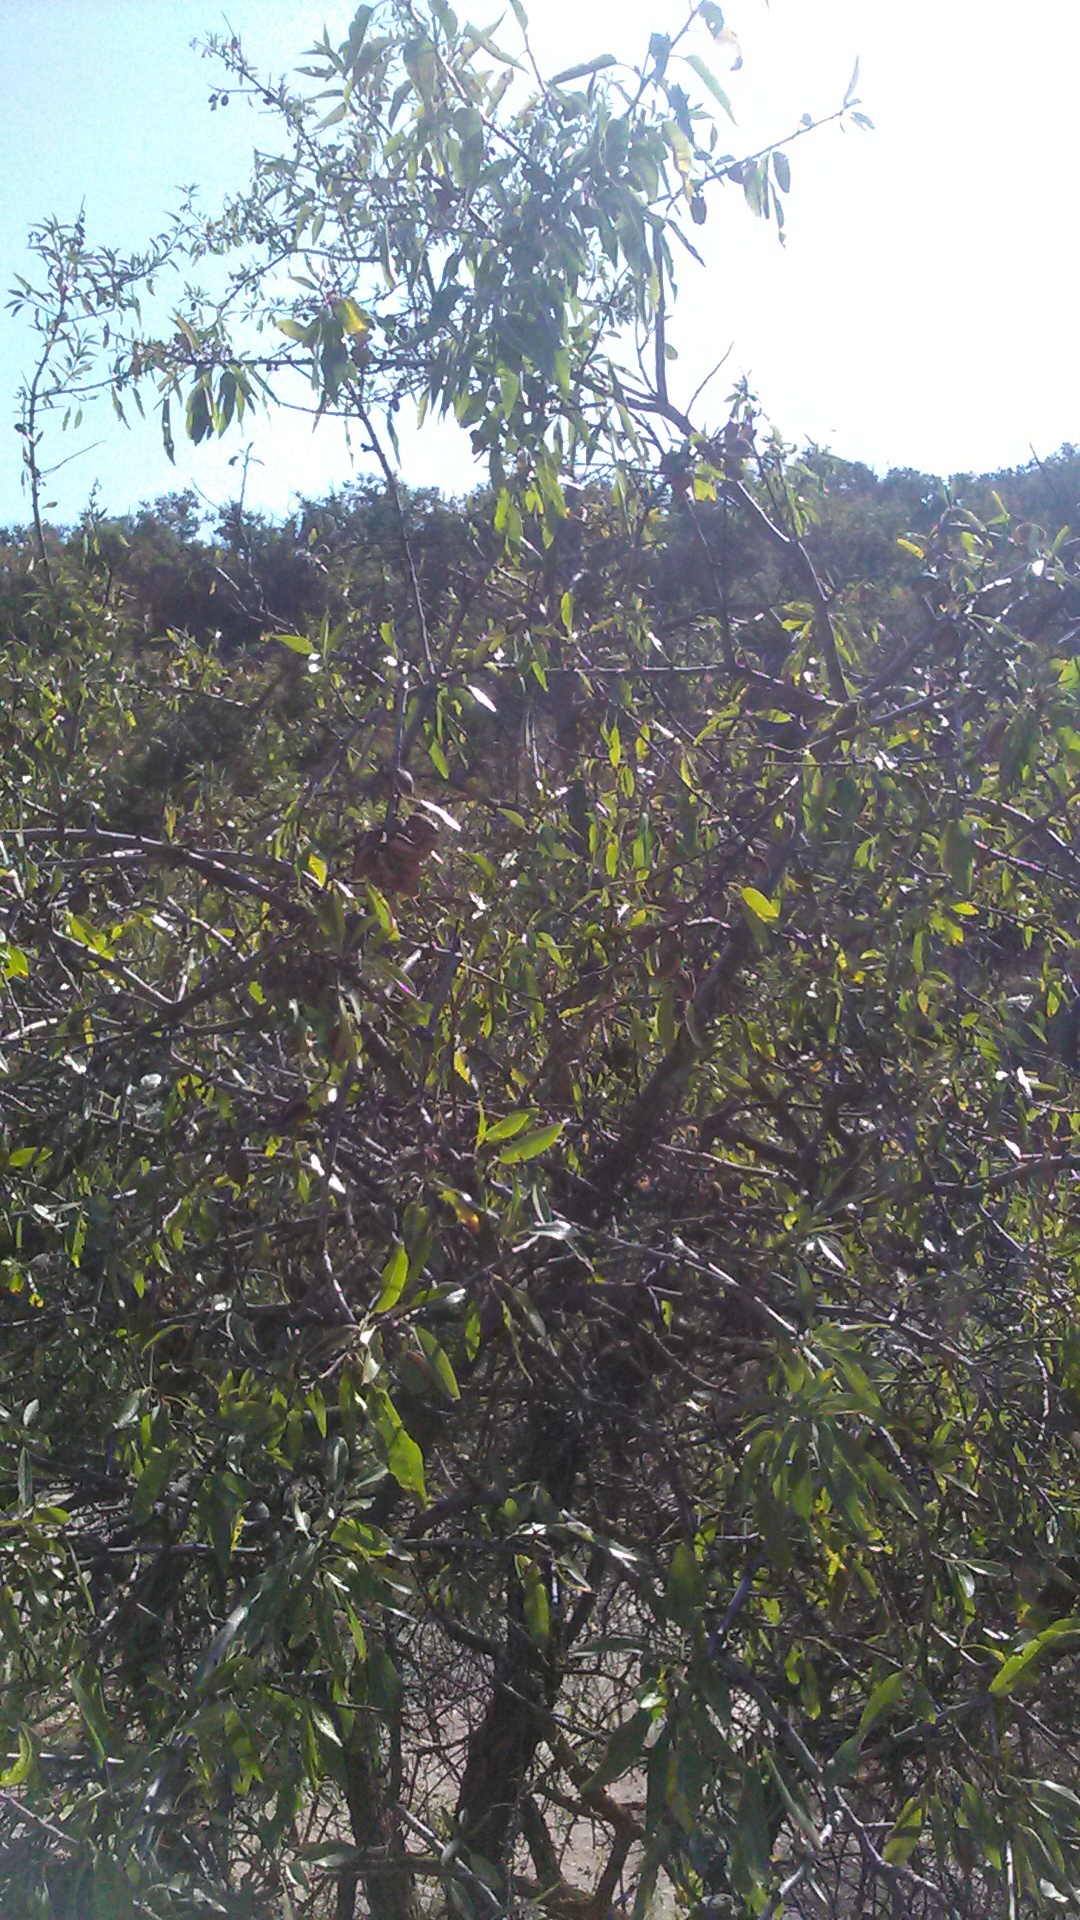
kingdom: Plantae
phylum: Tracheophyta
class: Magnoliopsida
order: Rosales
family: Rosaceae
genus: Prunus
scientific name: Prunus amygdalus
